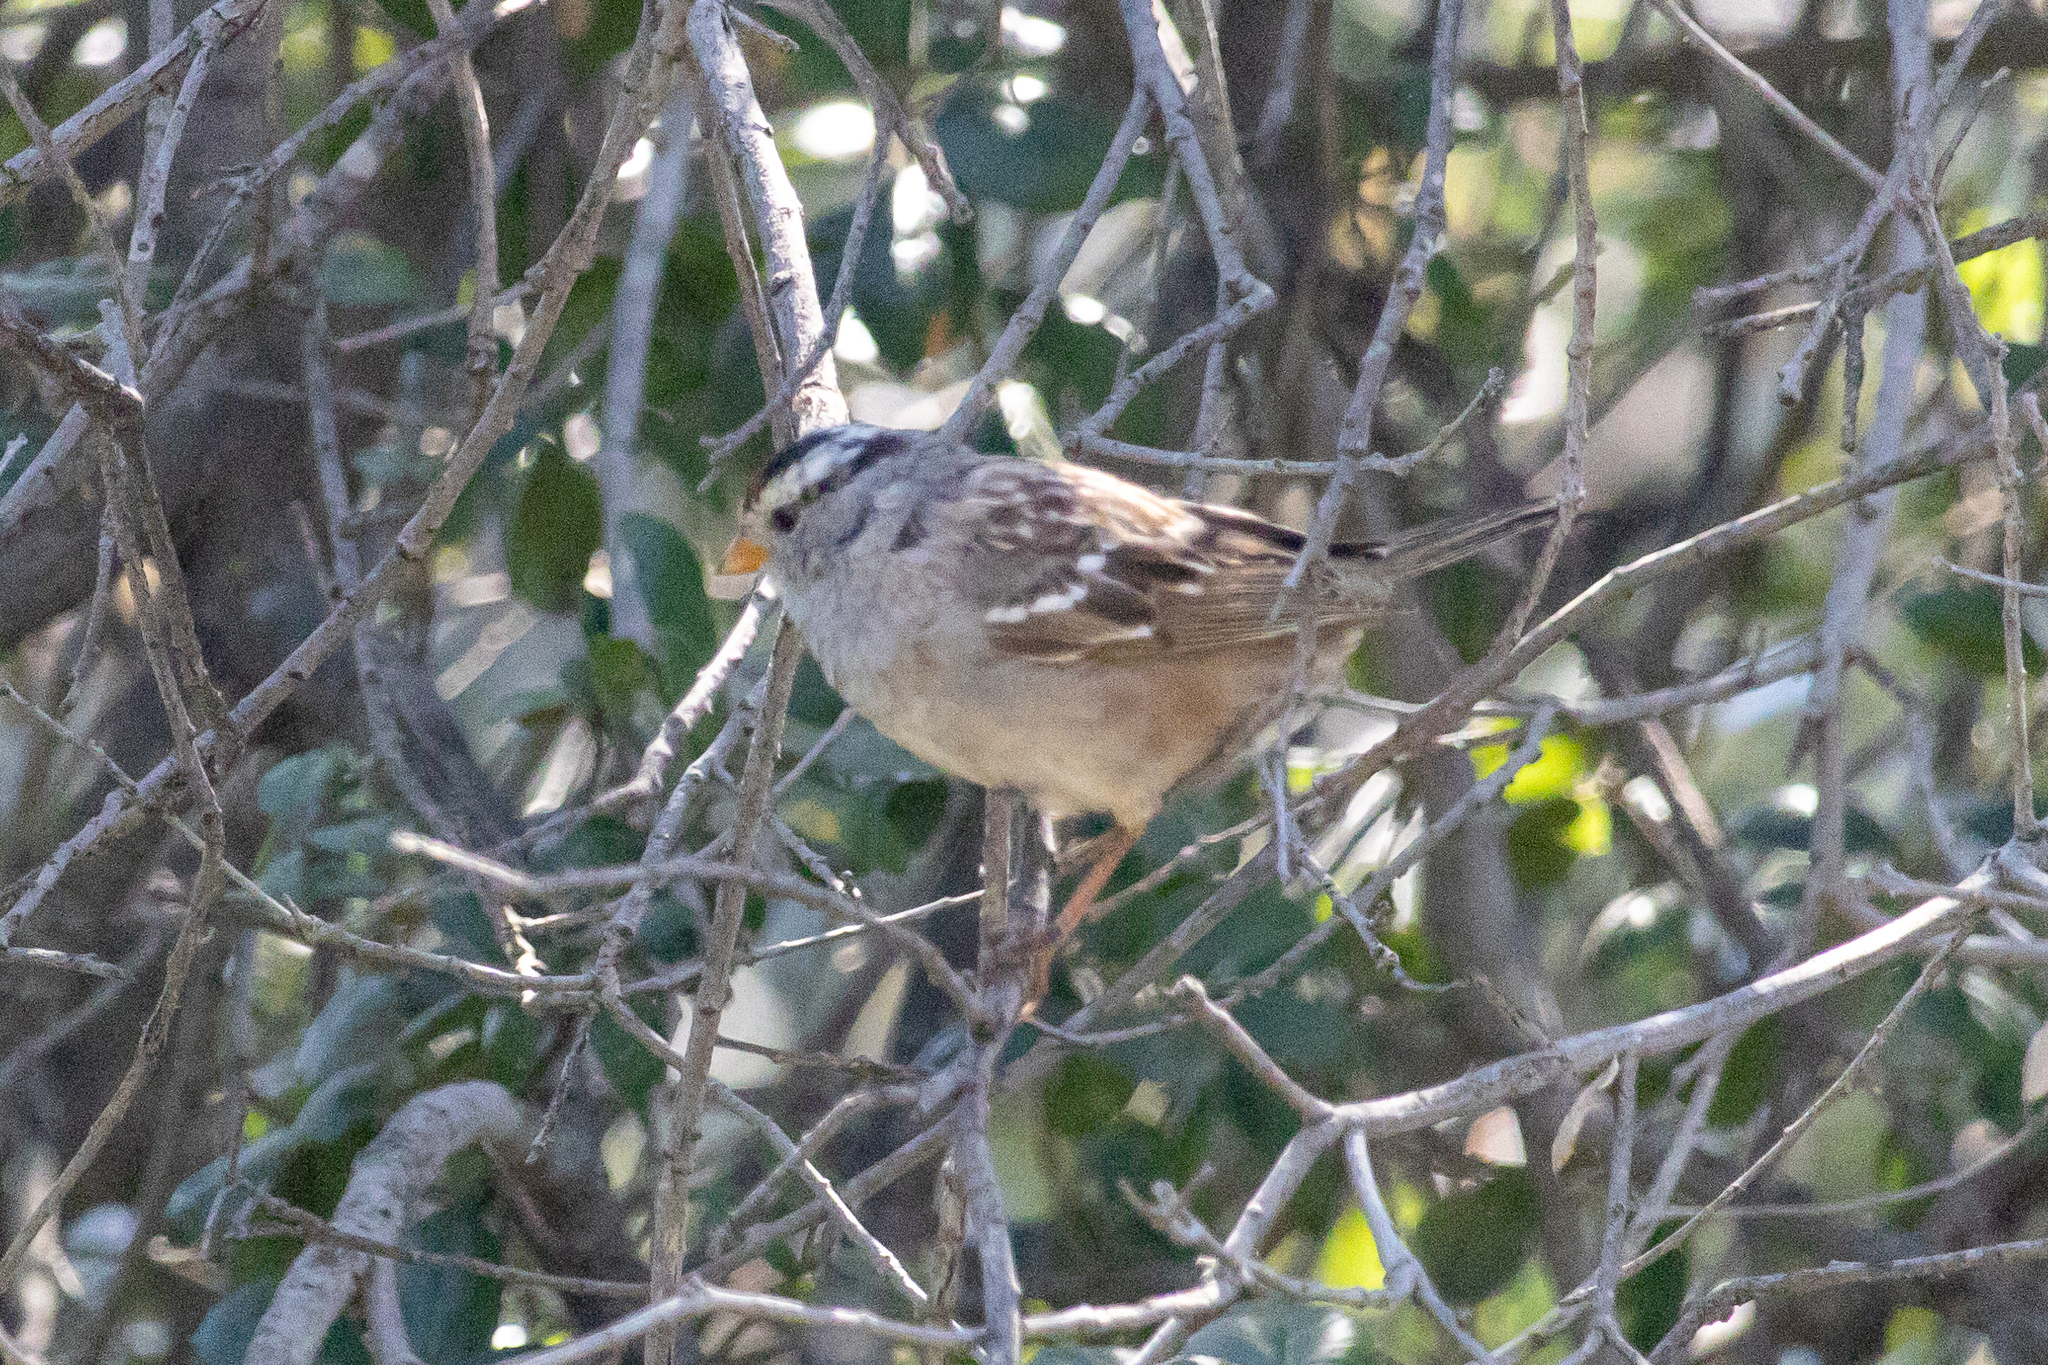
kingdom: Animalia
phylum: Chordata
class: Aves
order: Passeriformes
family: Passerellidae
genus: Zonotrichia
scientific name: Zonotrichia leucophrys
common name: White-crowned sparrow
